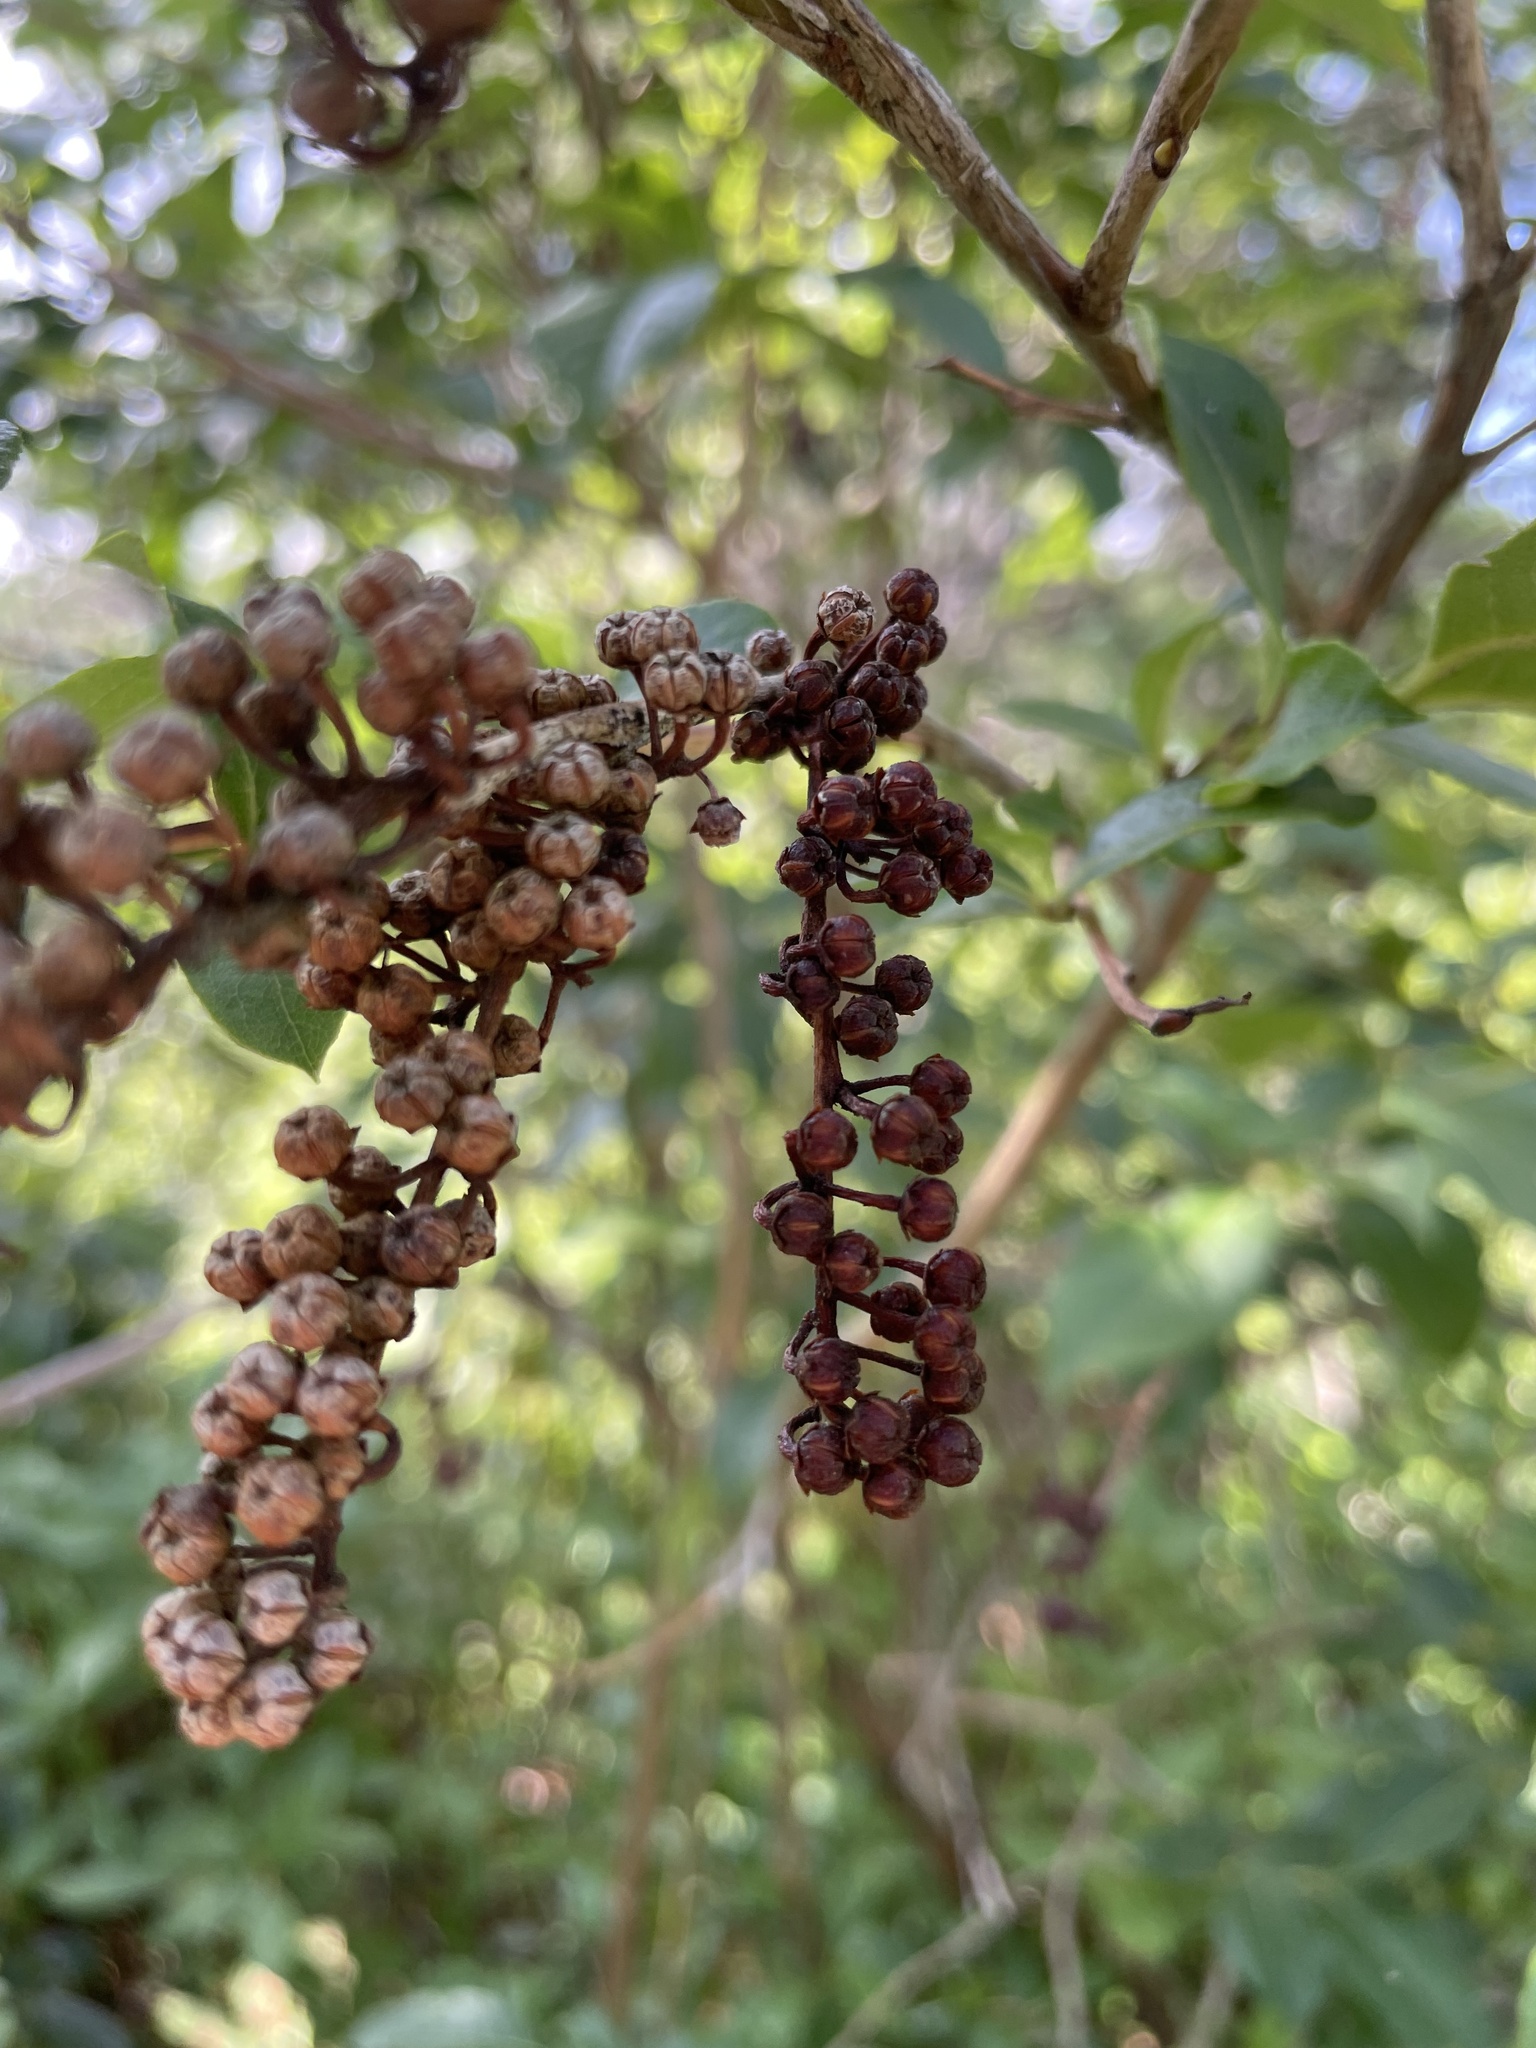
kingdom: Plantae
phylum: Tracheophyta
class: Magnoliopsida
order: Ericales
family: Ericaceae
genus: Lyonia
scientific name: Lyonia ligustrina
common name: Maleberry
